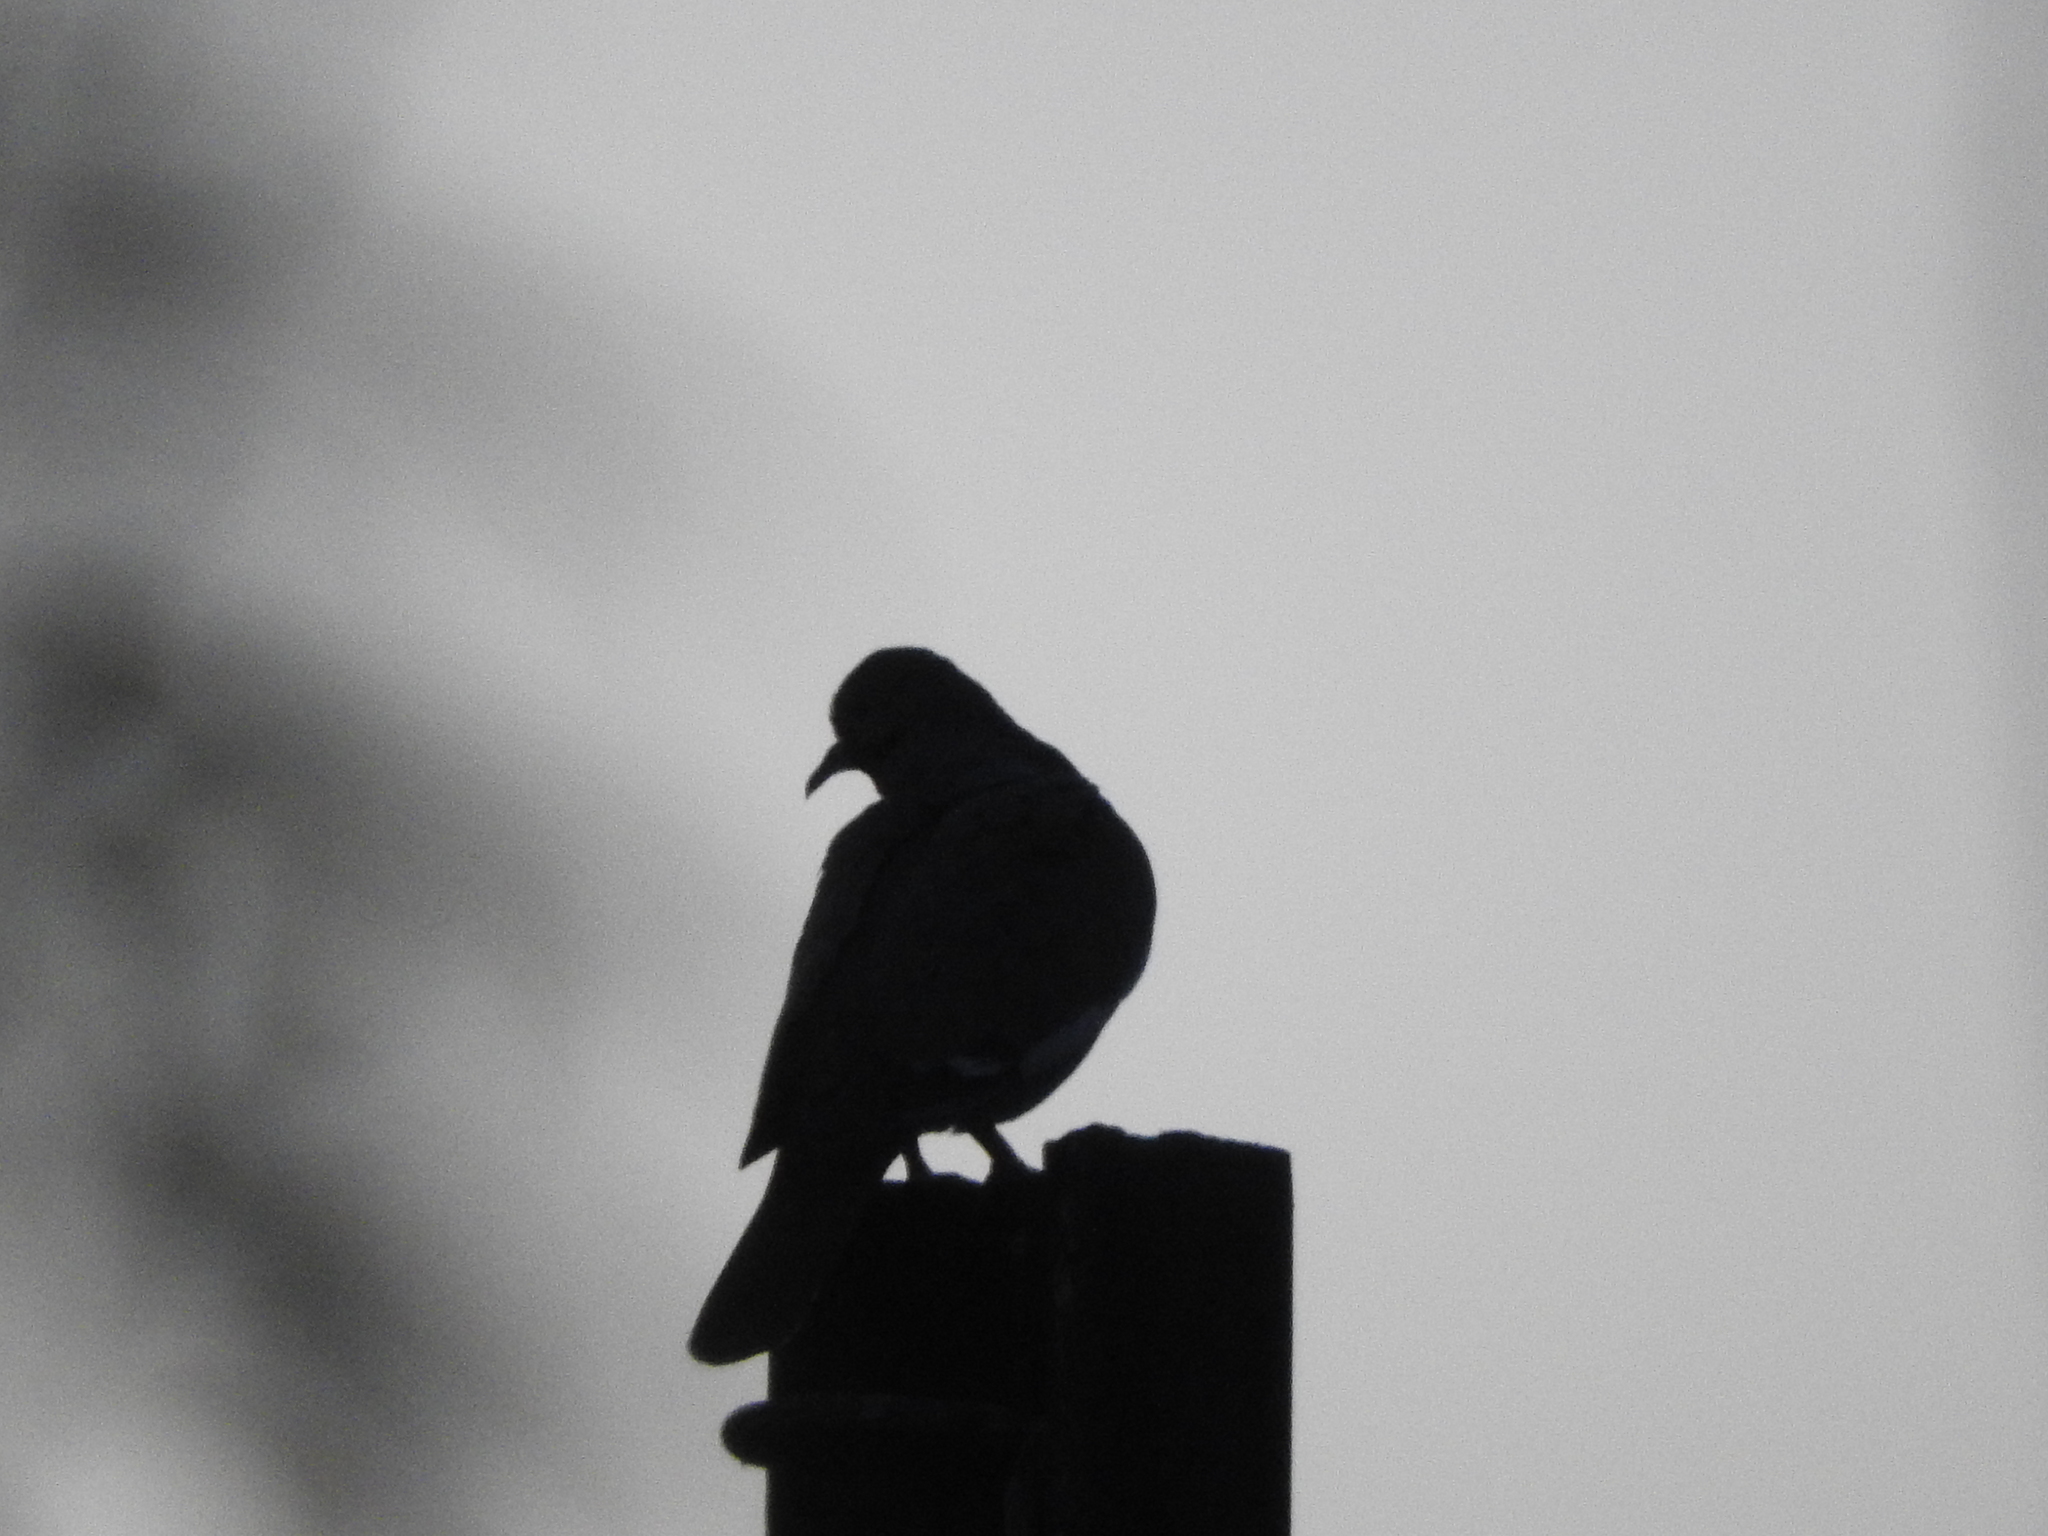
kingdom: Animalia
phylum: Chordata
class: Aves
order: Columbiformes
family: Columbidae
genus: Streptopelia
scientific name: Streptopelia decaocto
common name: Eurasian collared dove
